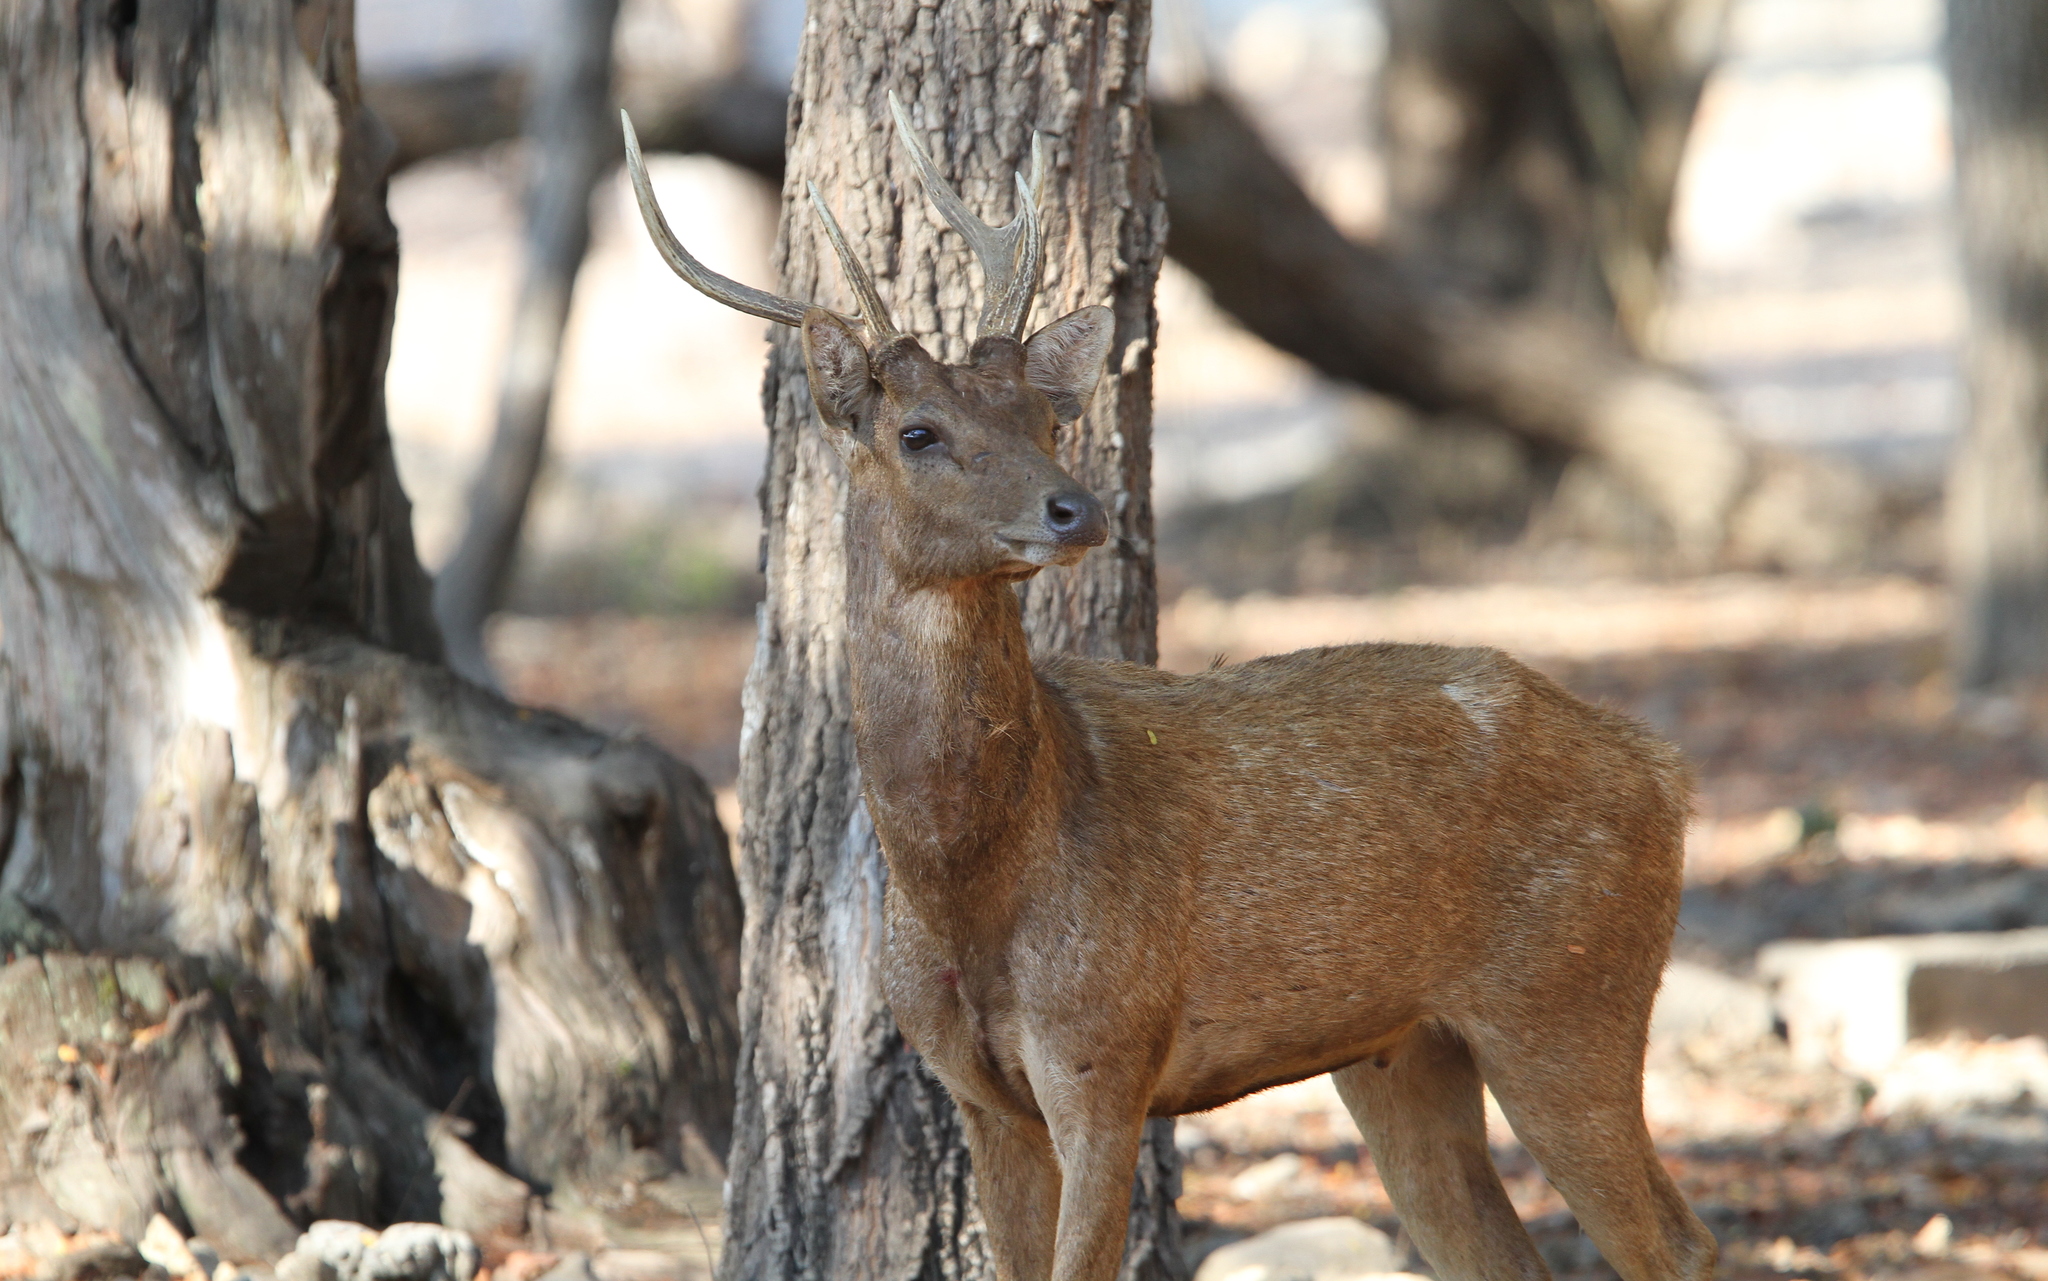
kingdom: Animalia
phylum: Chordata
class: Mammalia
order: Artiodactyla
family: Cervidae
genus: Rusa
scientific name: Rusa timorensis
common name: Javan rusa
